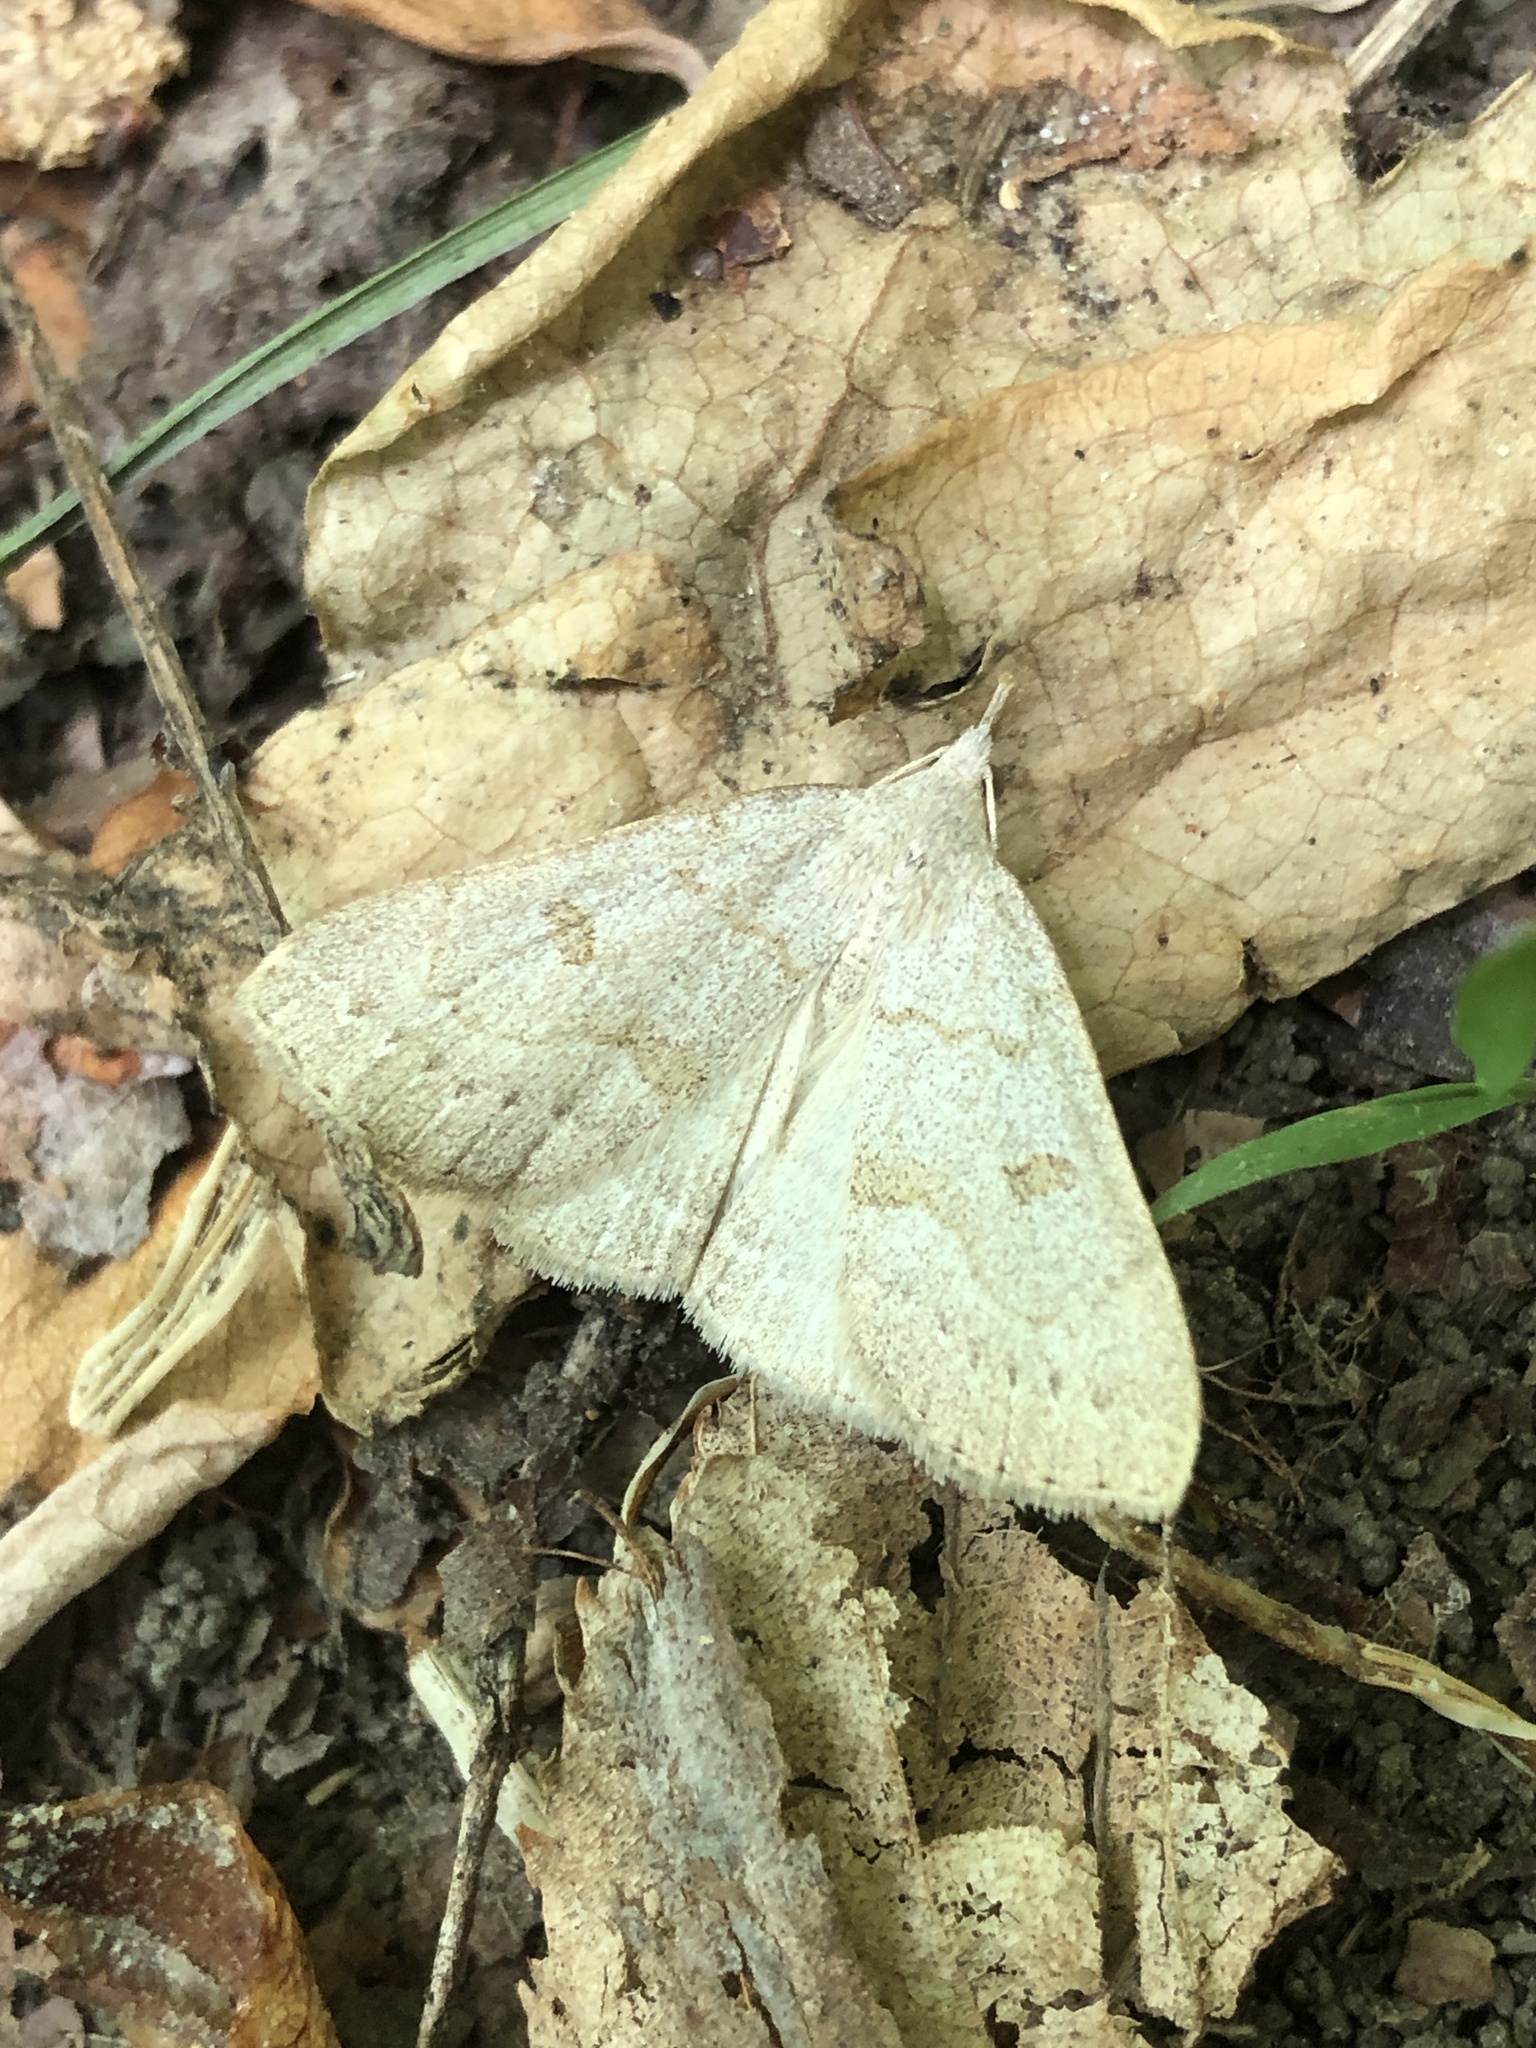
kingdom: Animalia
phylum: Arthropoda
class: Insecta
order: Lepidoptera
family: Erebidae
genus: Macrochilo
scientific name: Macrochilo morbidalis
